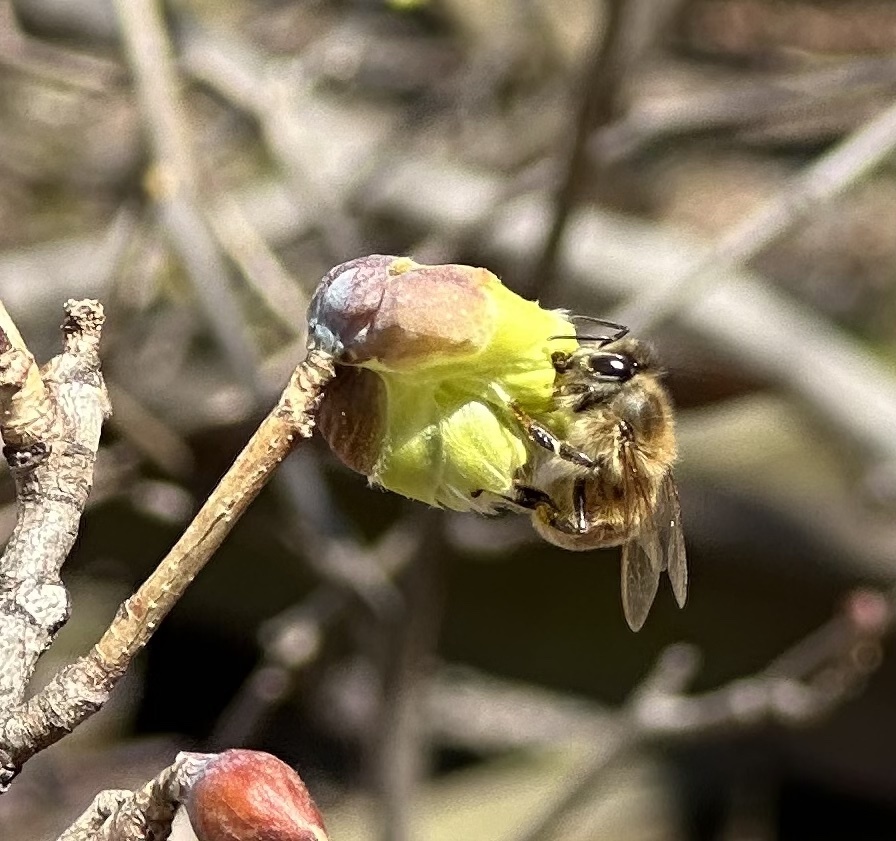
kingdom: Animalia
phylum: Arthropoda
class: Insecta
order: Hymenoptera
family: Apidae
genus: Apis
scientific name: Apis mellifera
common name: Honey bee
